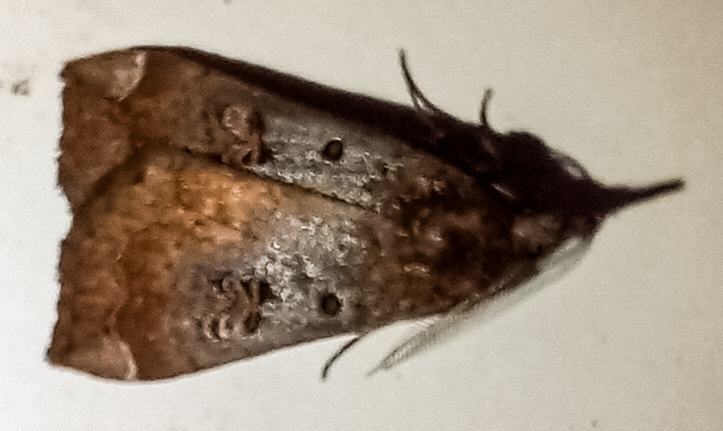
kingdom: Animalia
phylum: Arthropoda
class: Insecta
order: Lepidoptera
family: Erebidae
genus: Rhapsa
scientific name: Rhapsa scotosialis
